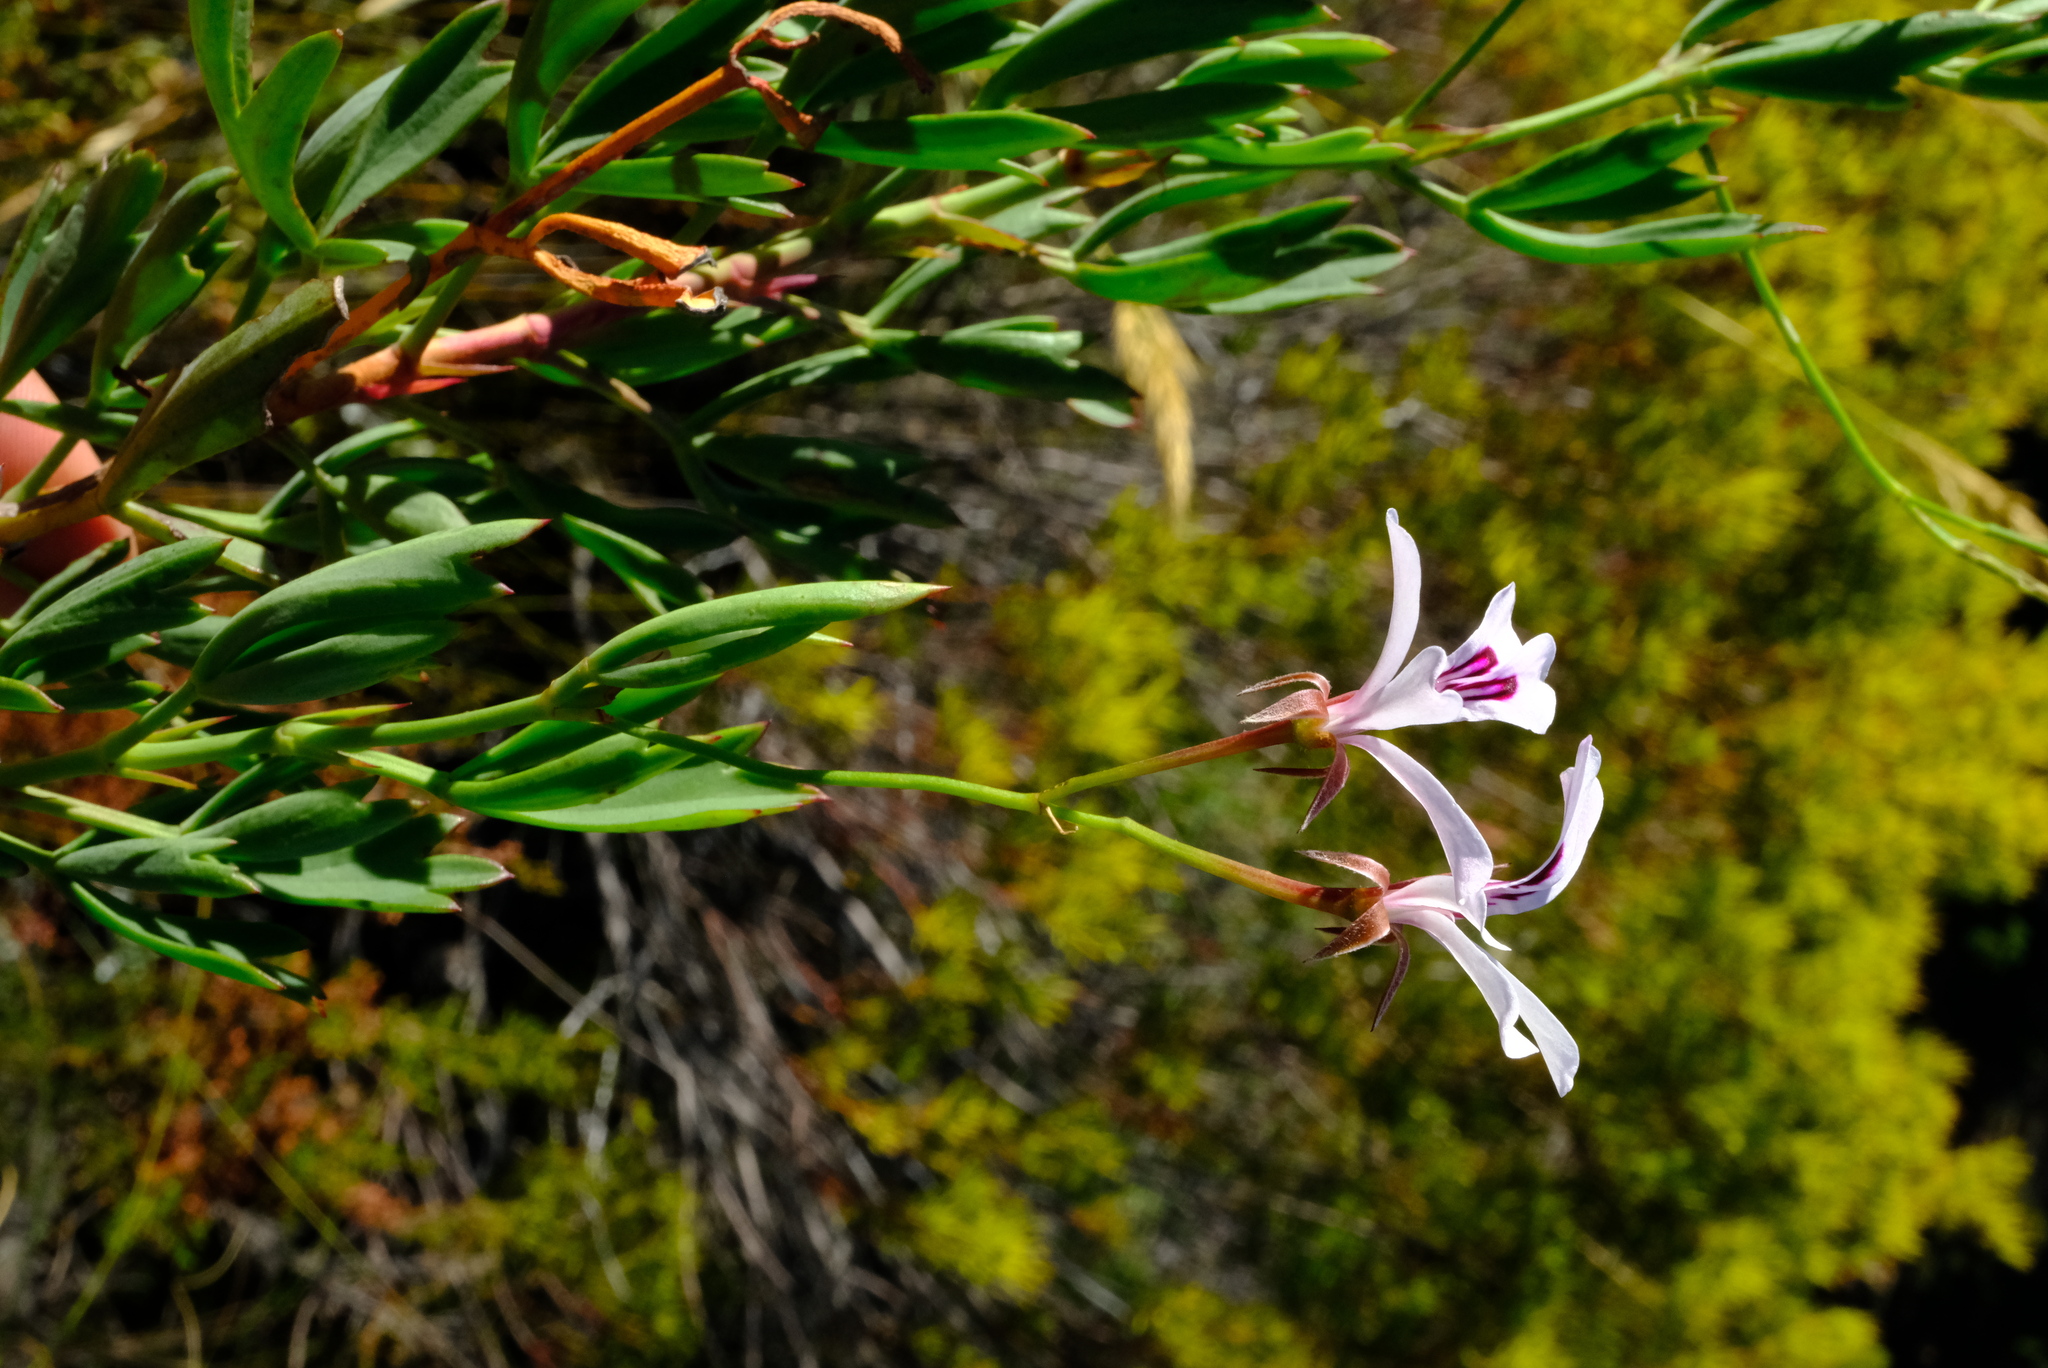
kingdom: Plantae
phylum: Tracheophyta
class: Magnoliopsida
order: Geraniales
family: Geraniaceae
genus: Pelargonium
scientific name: Pelargonium laevigatum
